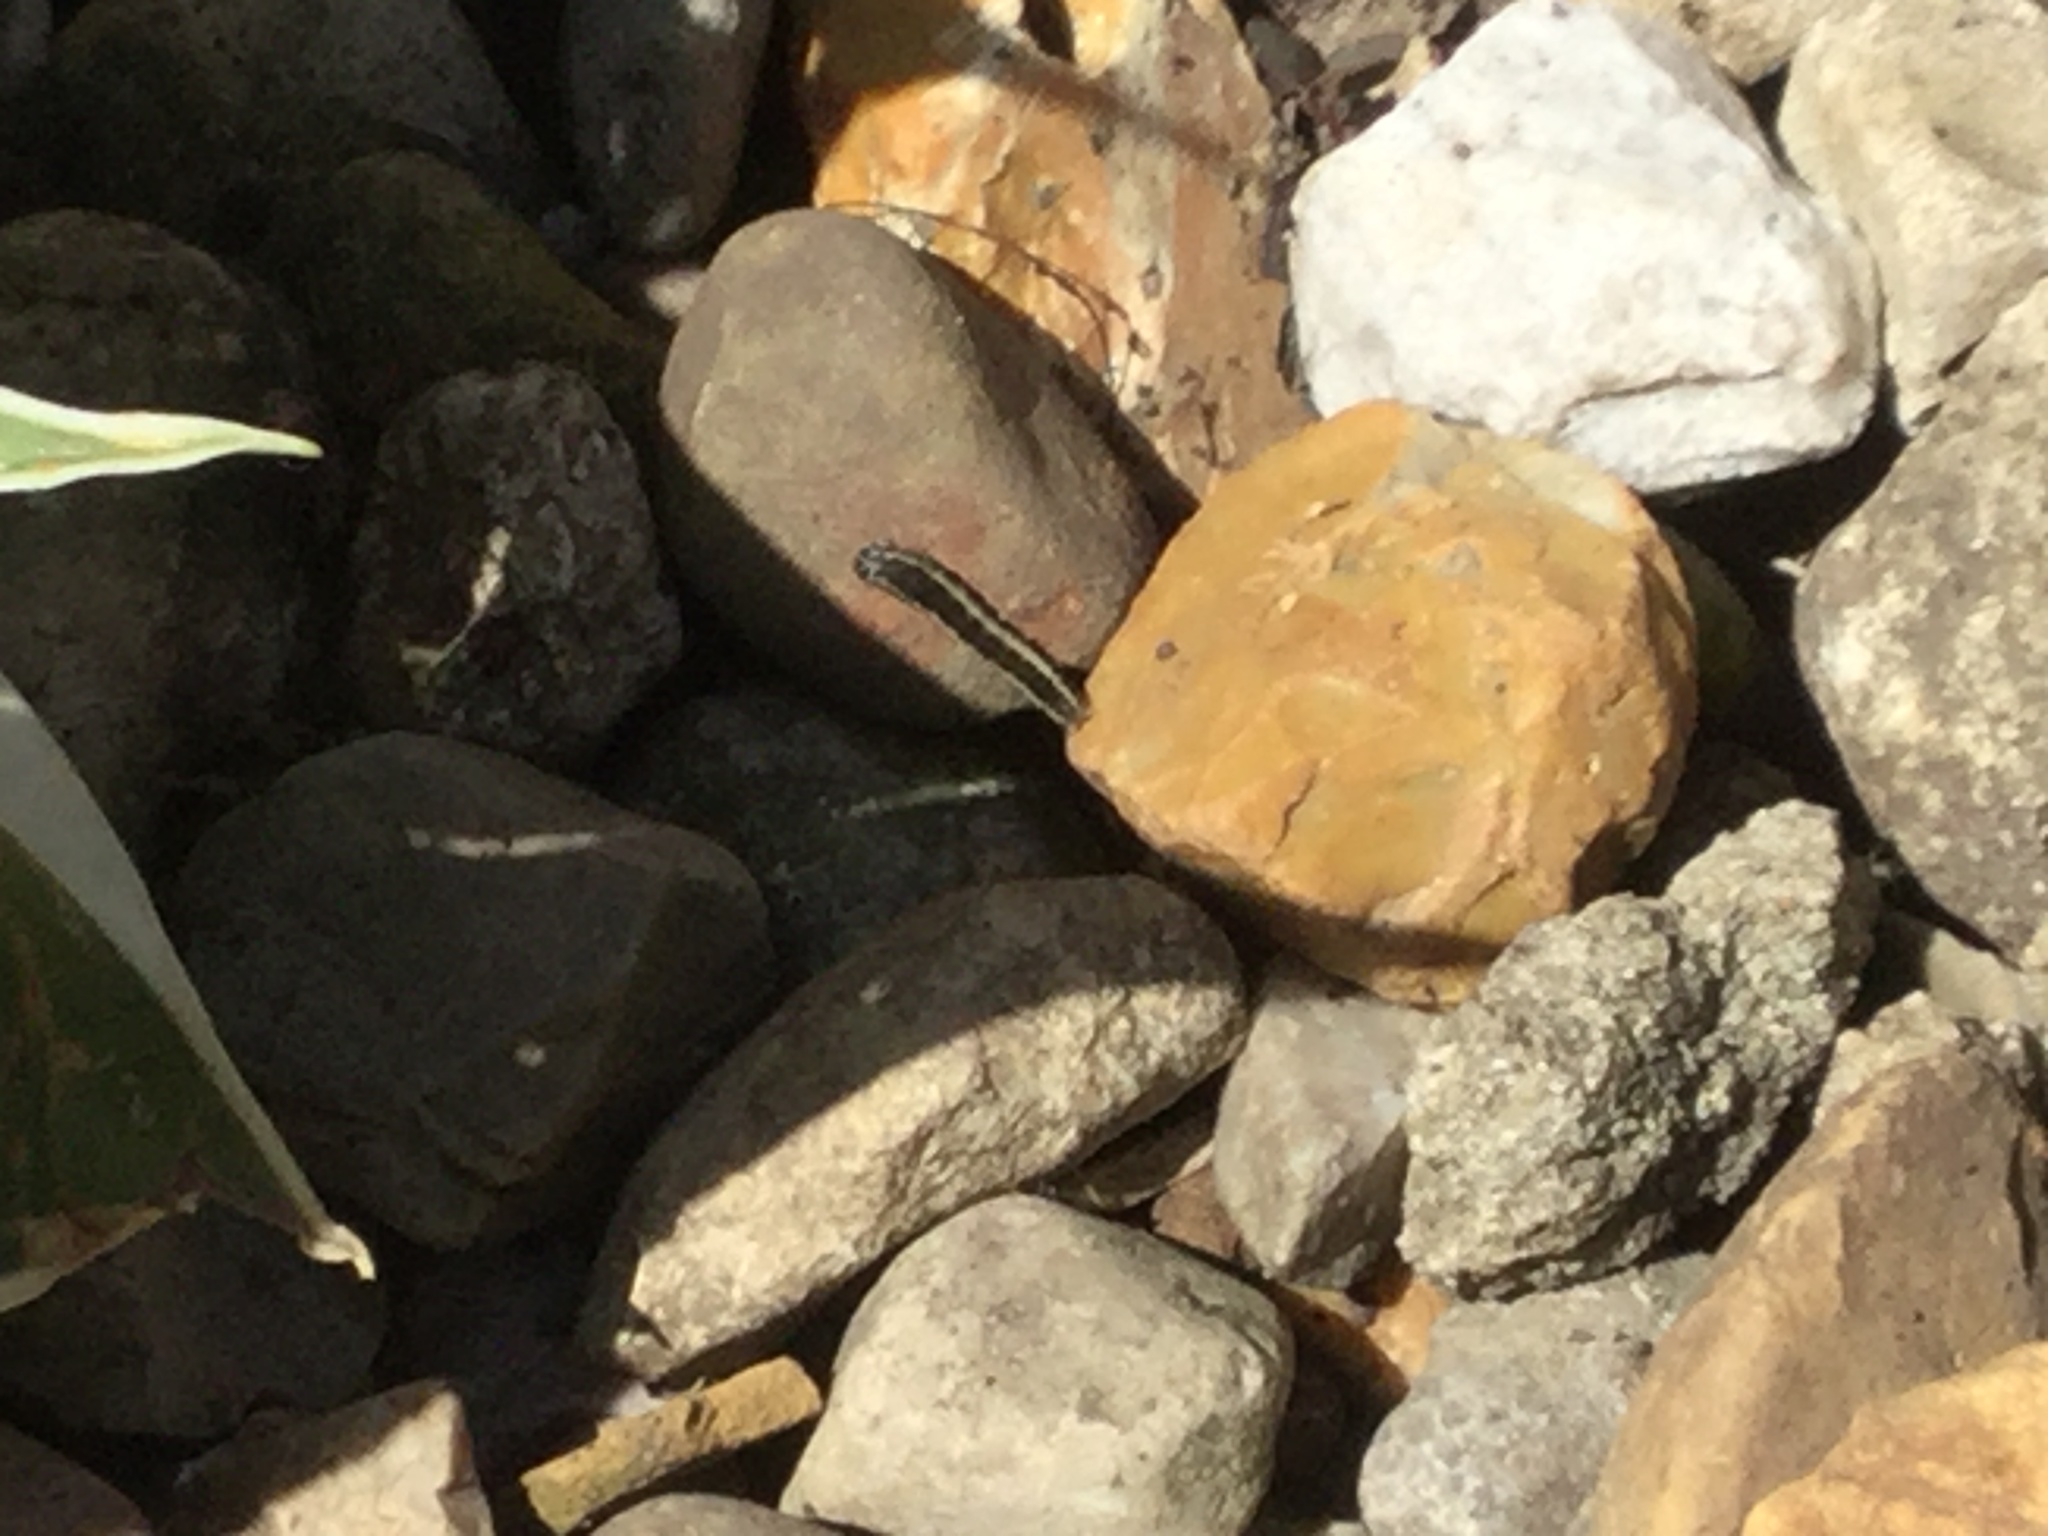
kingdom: Animalia
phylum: Arthropoda
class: Insecta
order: Lepidoptera
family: Noctuidae
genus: Spodoptera
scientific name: Spodoptera ornithogalli
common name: Yellow-striped armyworm
